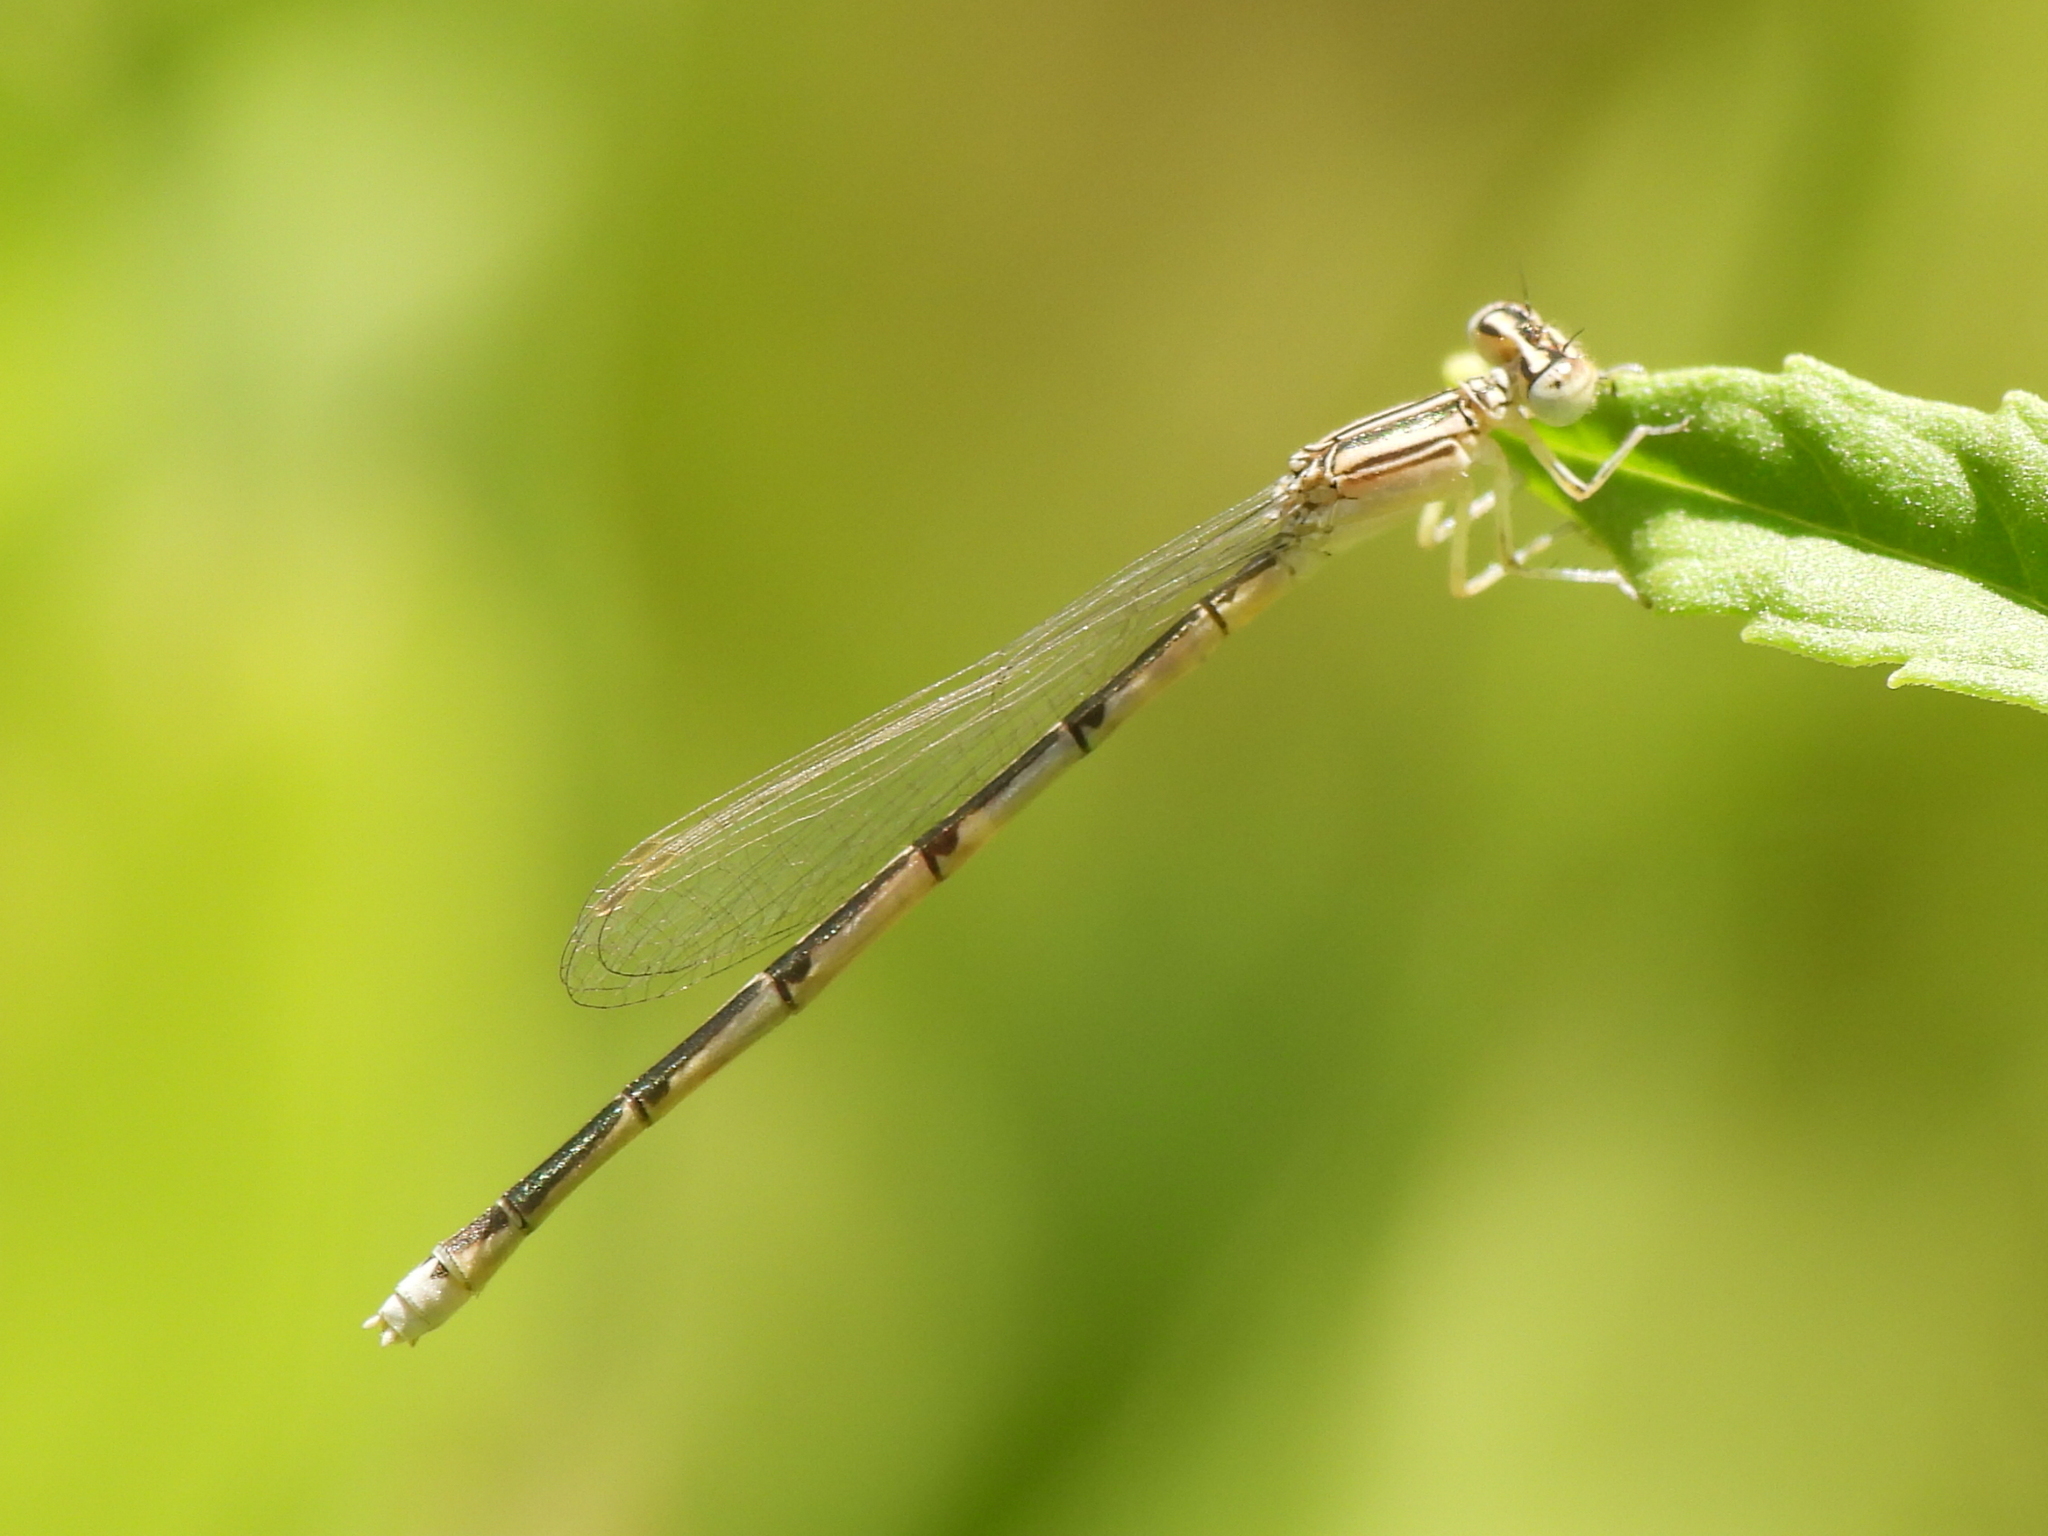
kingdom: Animalia
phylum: Arthropoda
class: Insecta
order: Odonata
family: Coenagrionidae
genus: Enallagma
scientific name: Enallagma basidens
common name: Double-striped bluet
